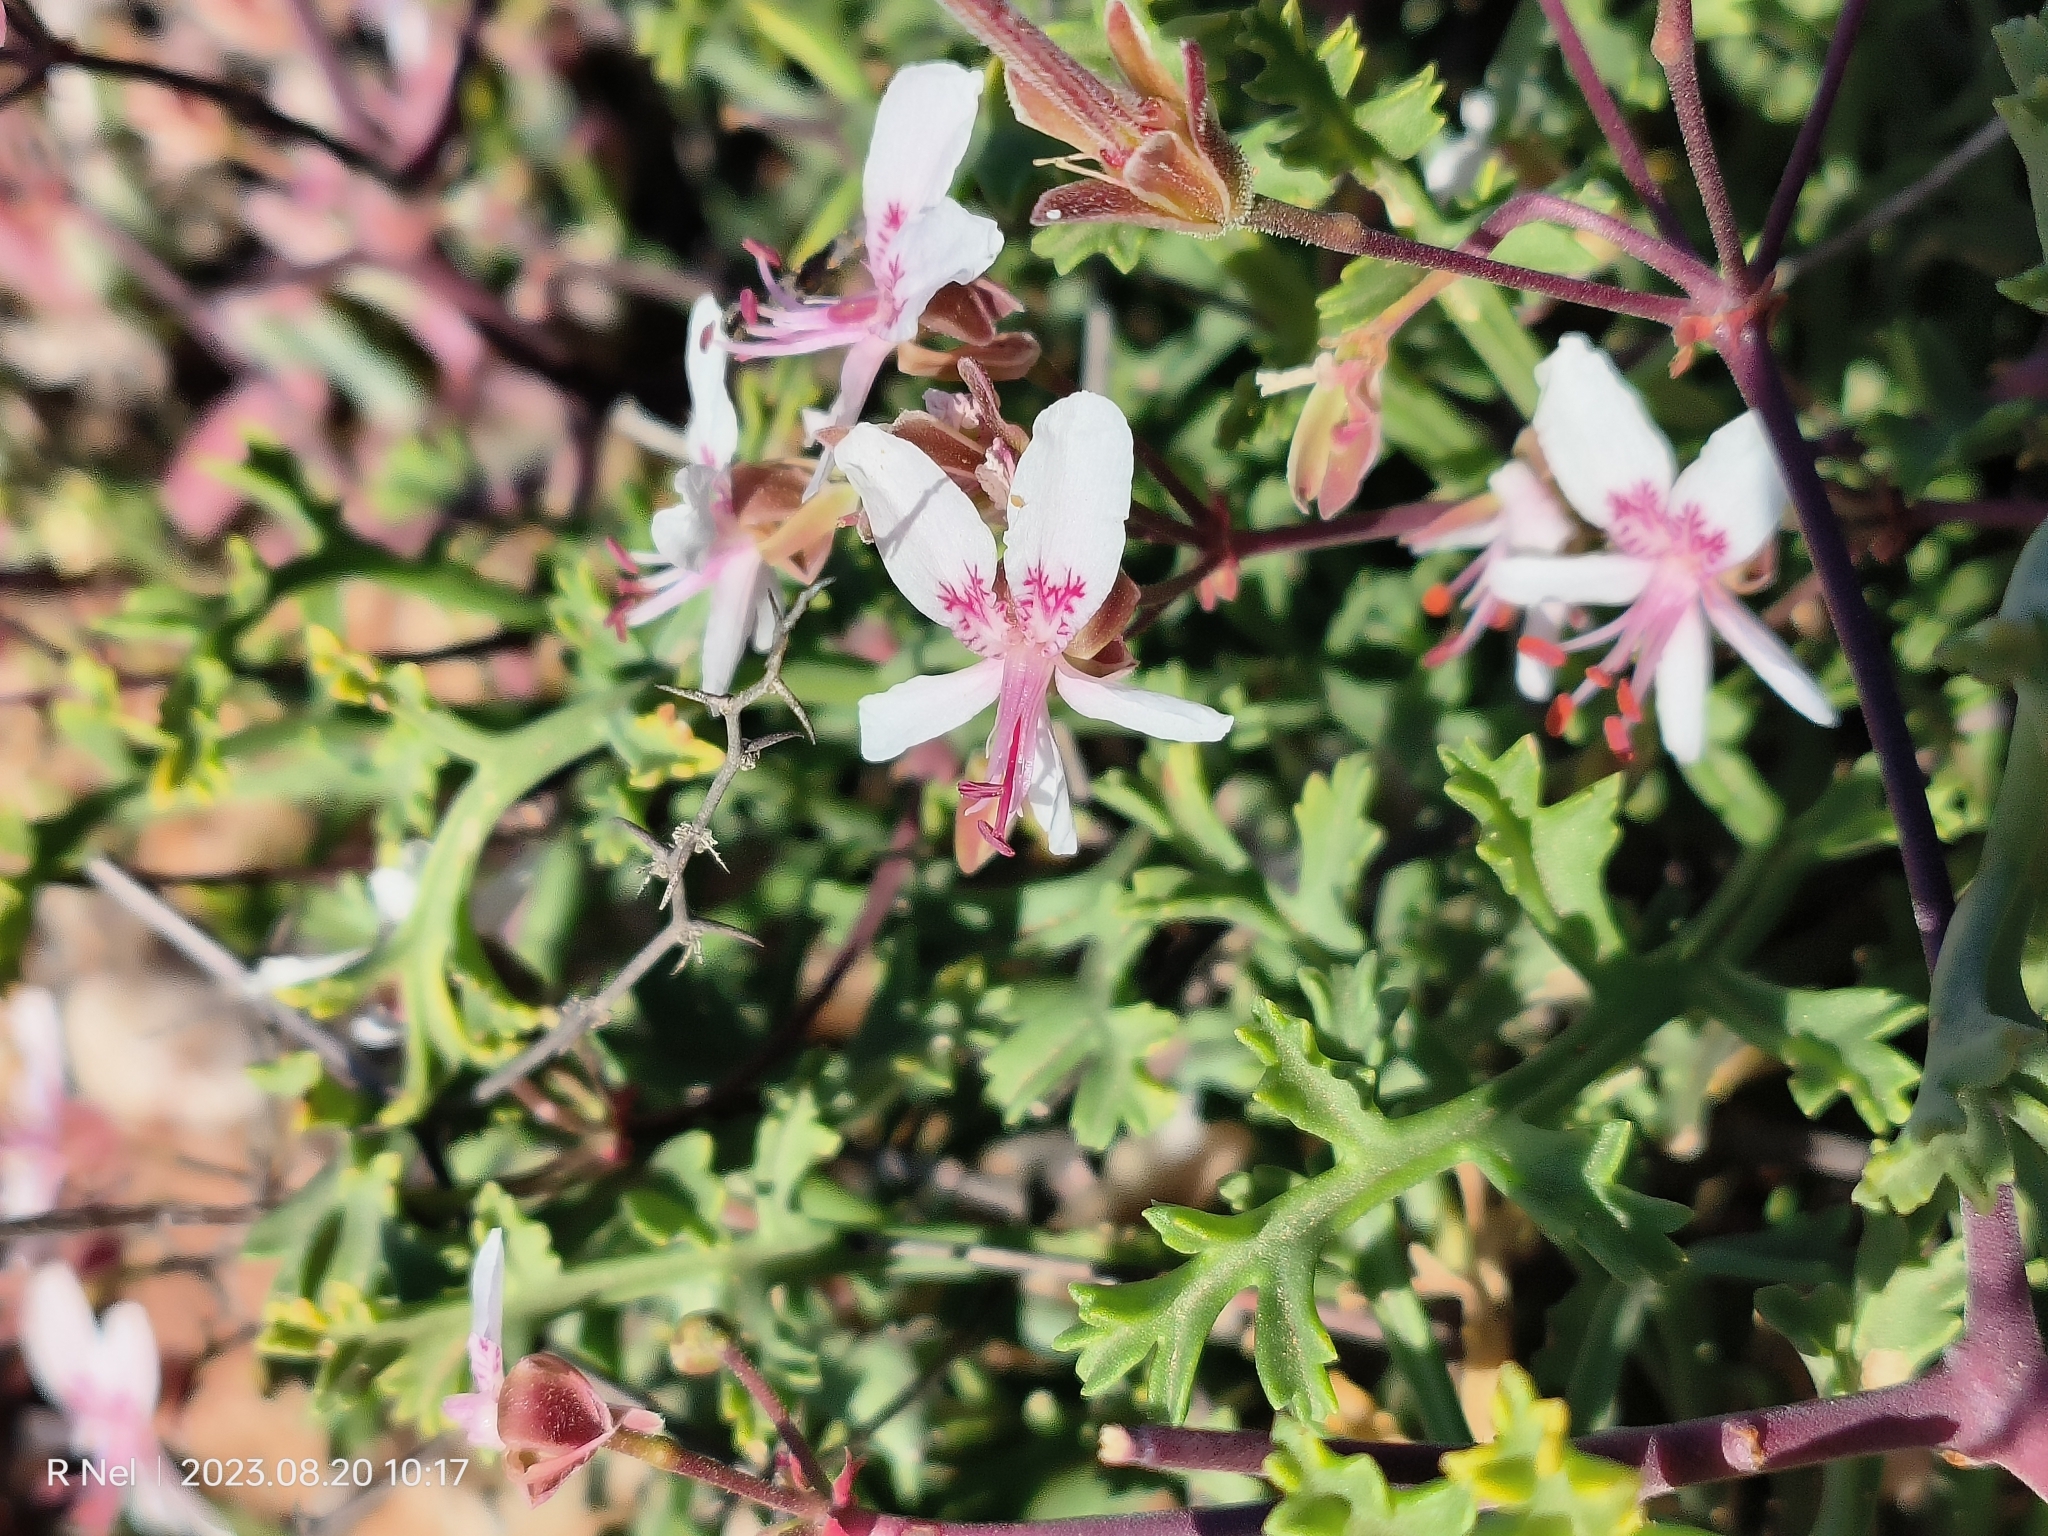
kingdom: Plantae
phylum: Tracheophyta
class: Magnoliopsida
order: Geraniales
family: Geraniaceae
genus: Pelargonium
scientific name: Pelargonium crithmifolium
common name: Samphire-leaf pelargonium
